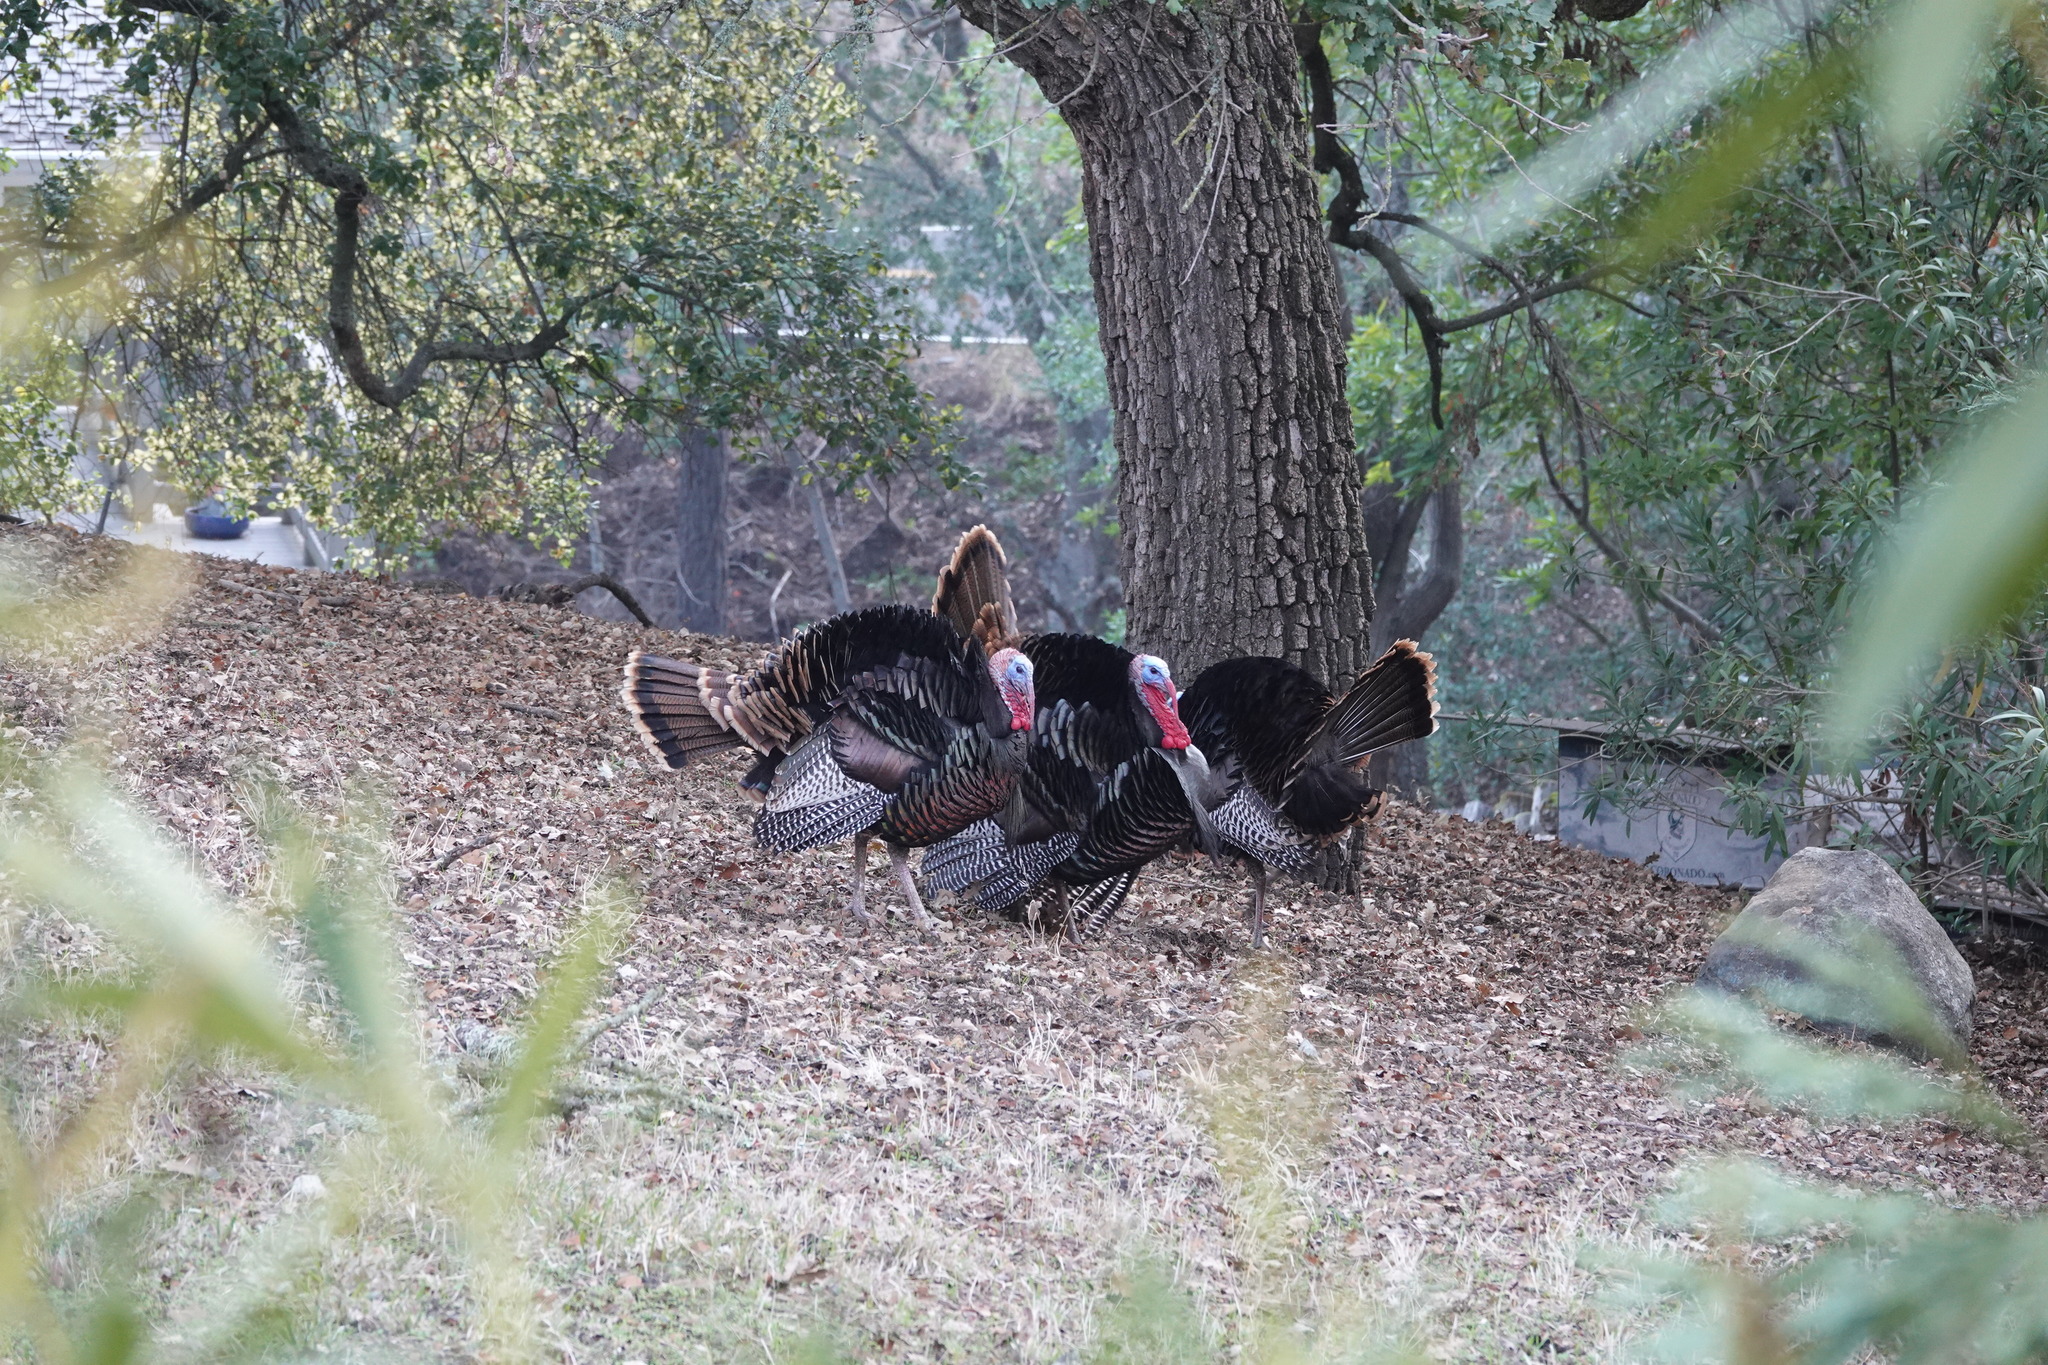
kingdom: Animalia
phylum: Chordata
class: Aves
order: Galliformes
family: Phasianidae
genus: Meleagris
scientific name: Meleagris gallopavo
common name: Wild turkey
